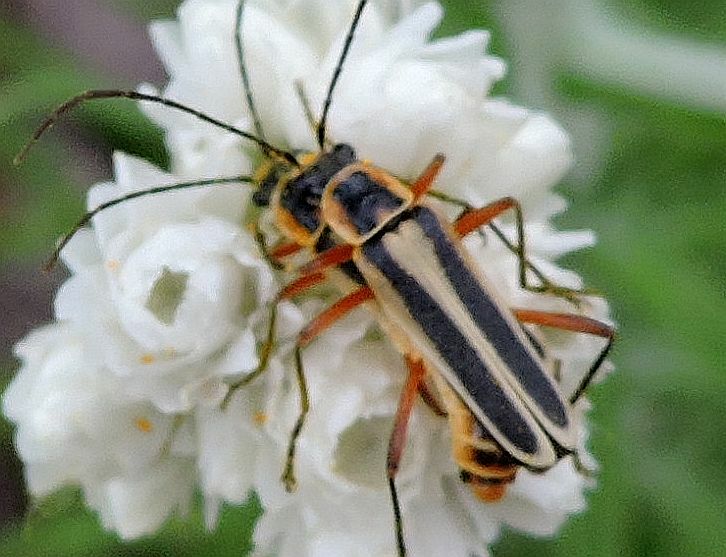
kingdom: Animalia
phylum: Arthropoda
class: Insecta
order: Coleoptera
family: Cantharidae
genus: Chauliognathus
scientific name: Chauliognathus lewisi
